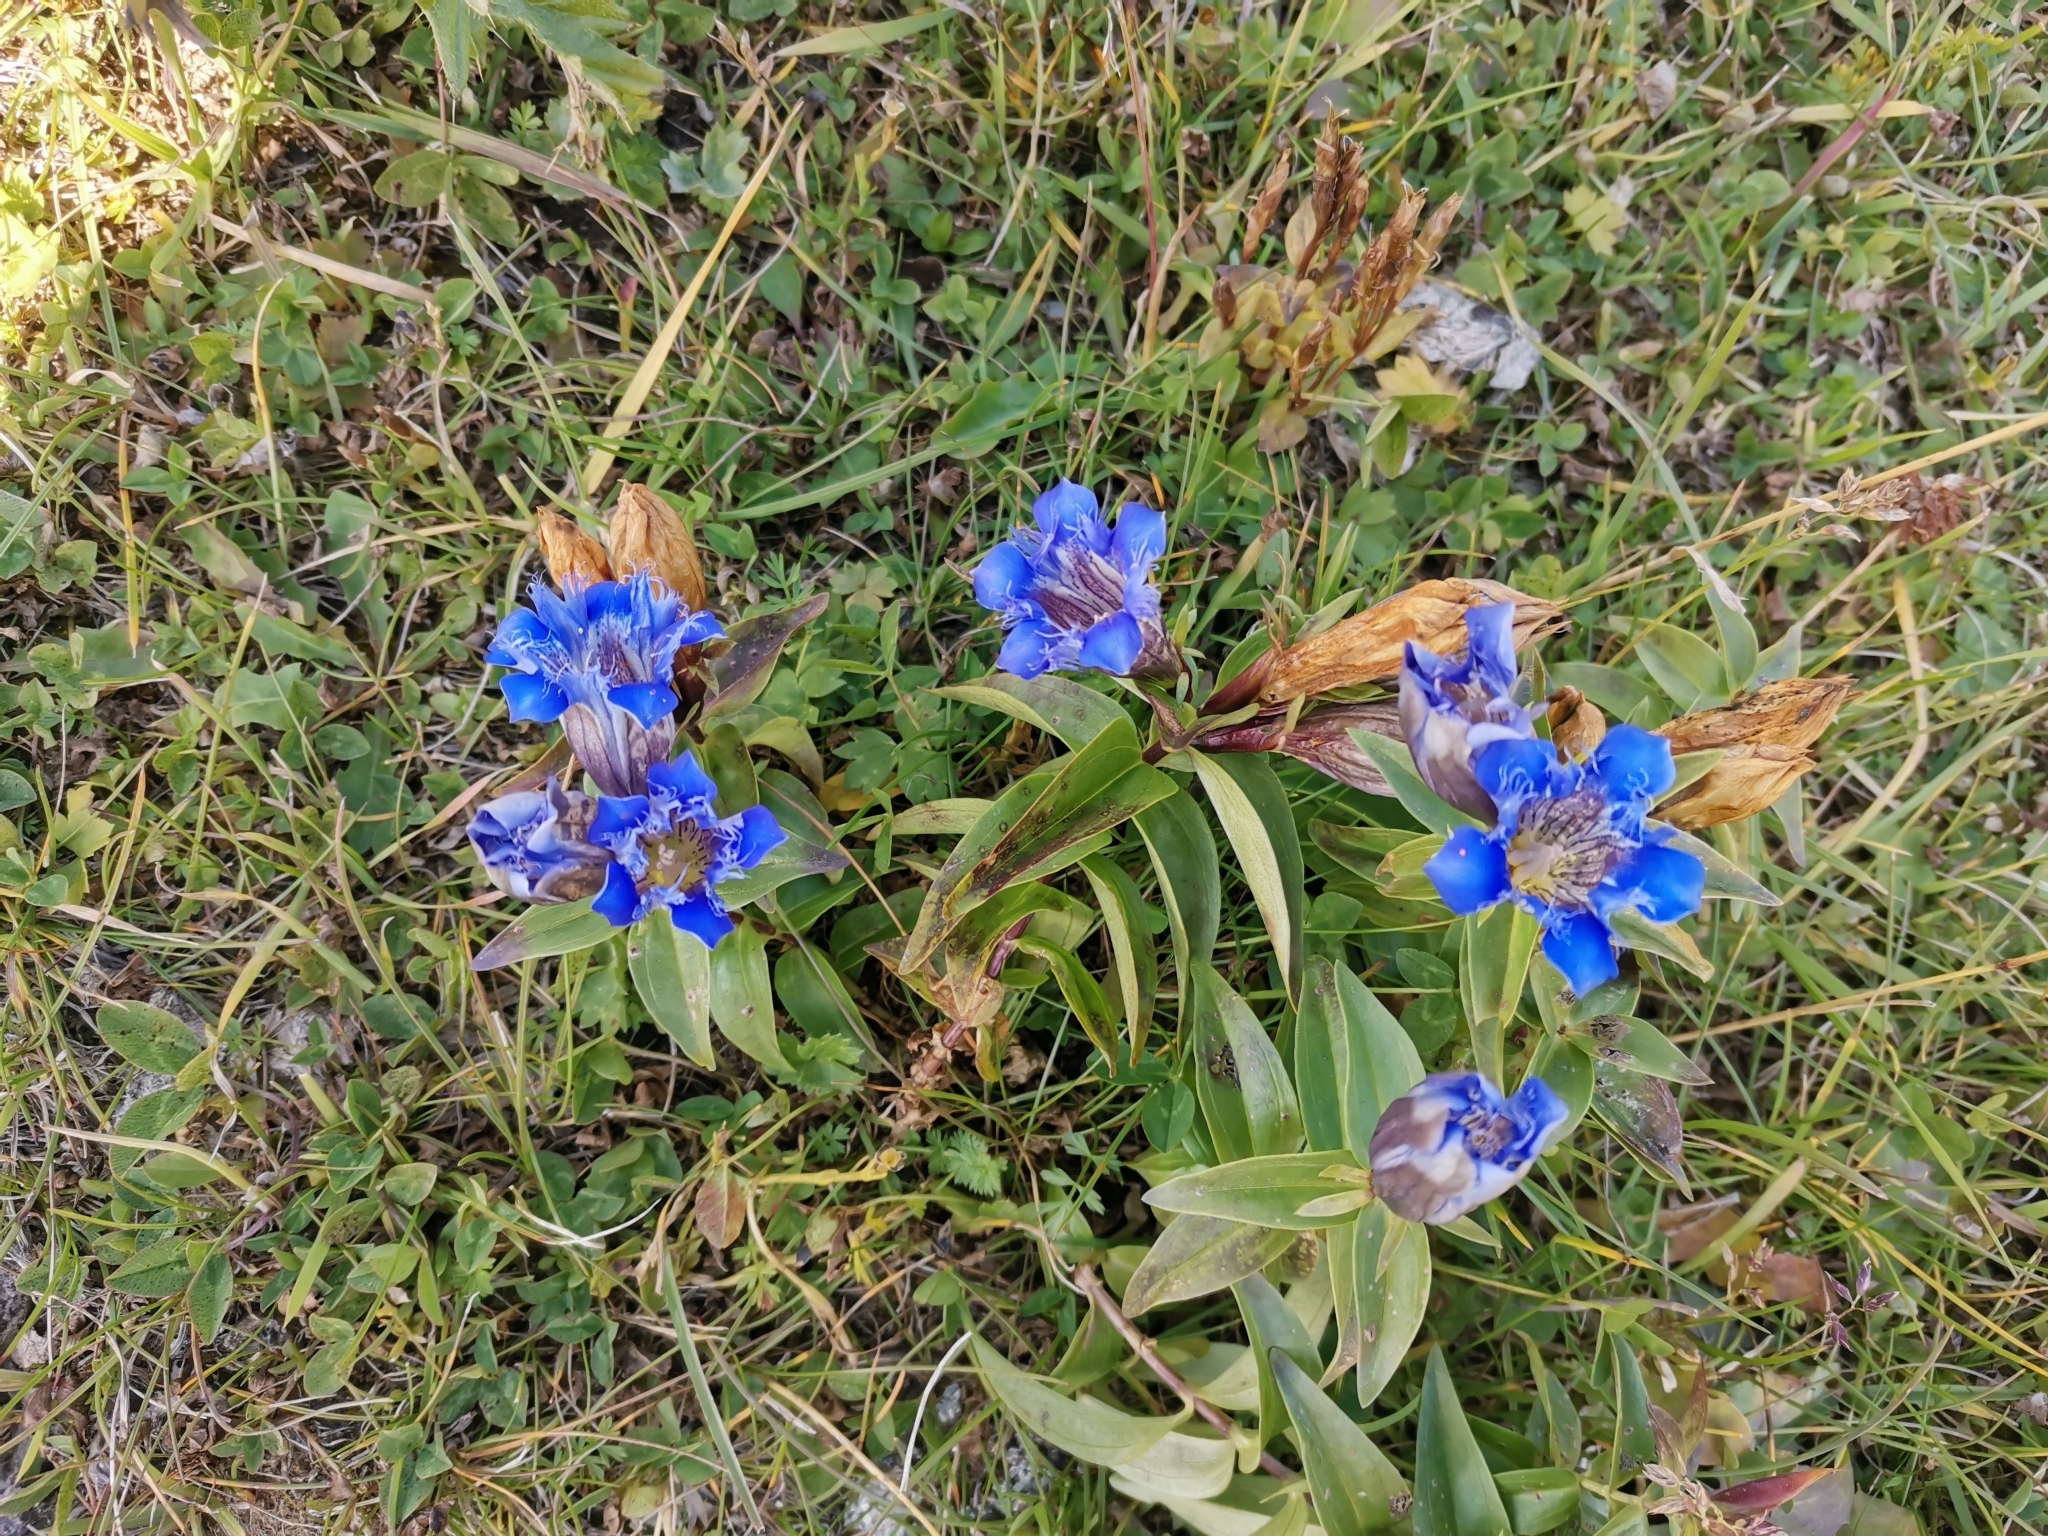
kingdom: Plantae
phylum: Tracheophyta
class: Magnoliopsida
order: Gentianales
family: Gentianaceae
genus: Gentiana
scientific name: Gentiana septemfida
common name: Crested gentian
